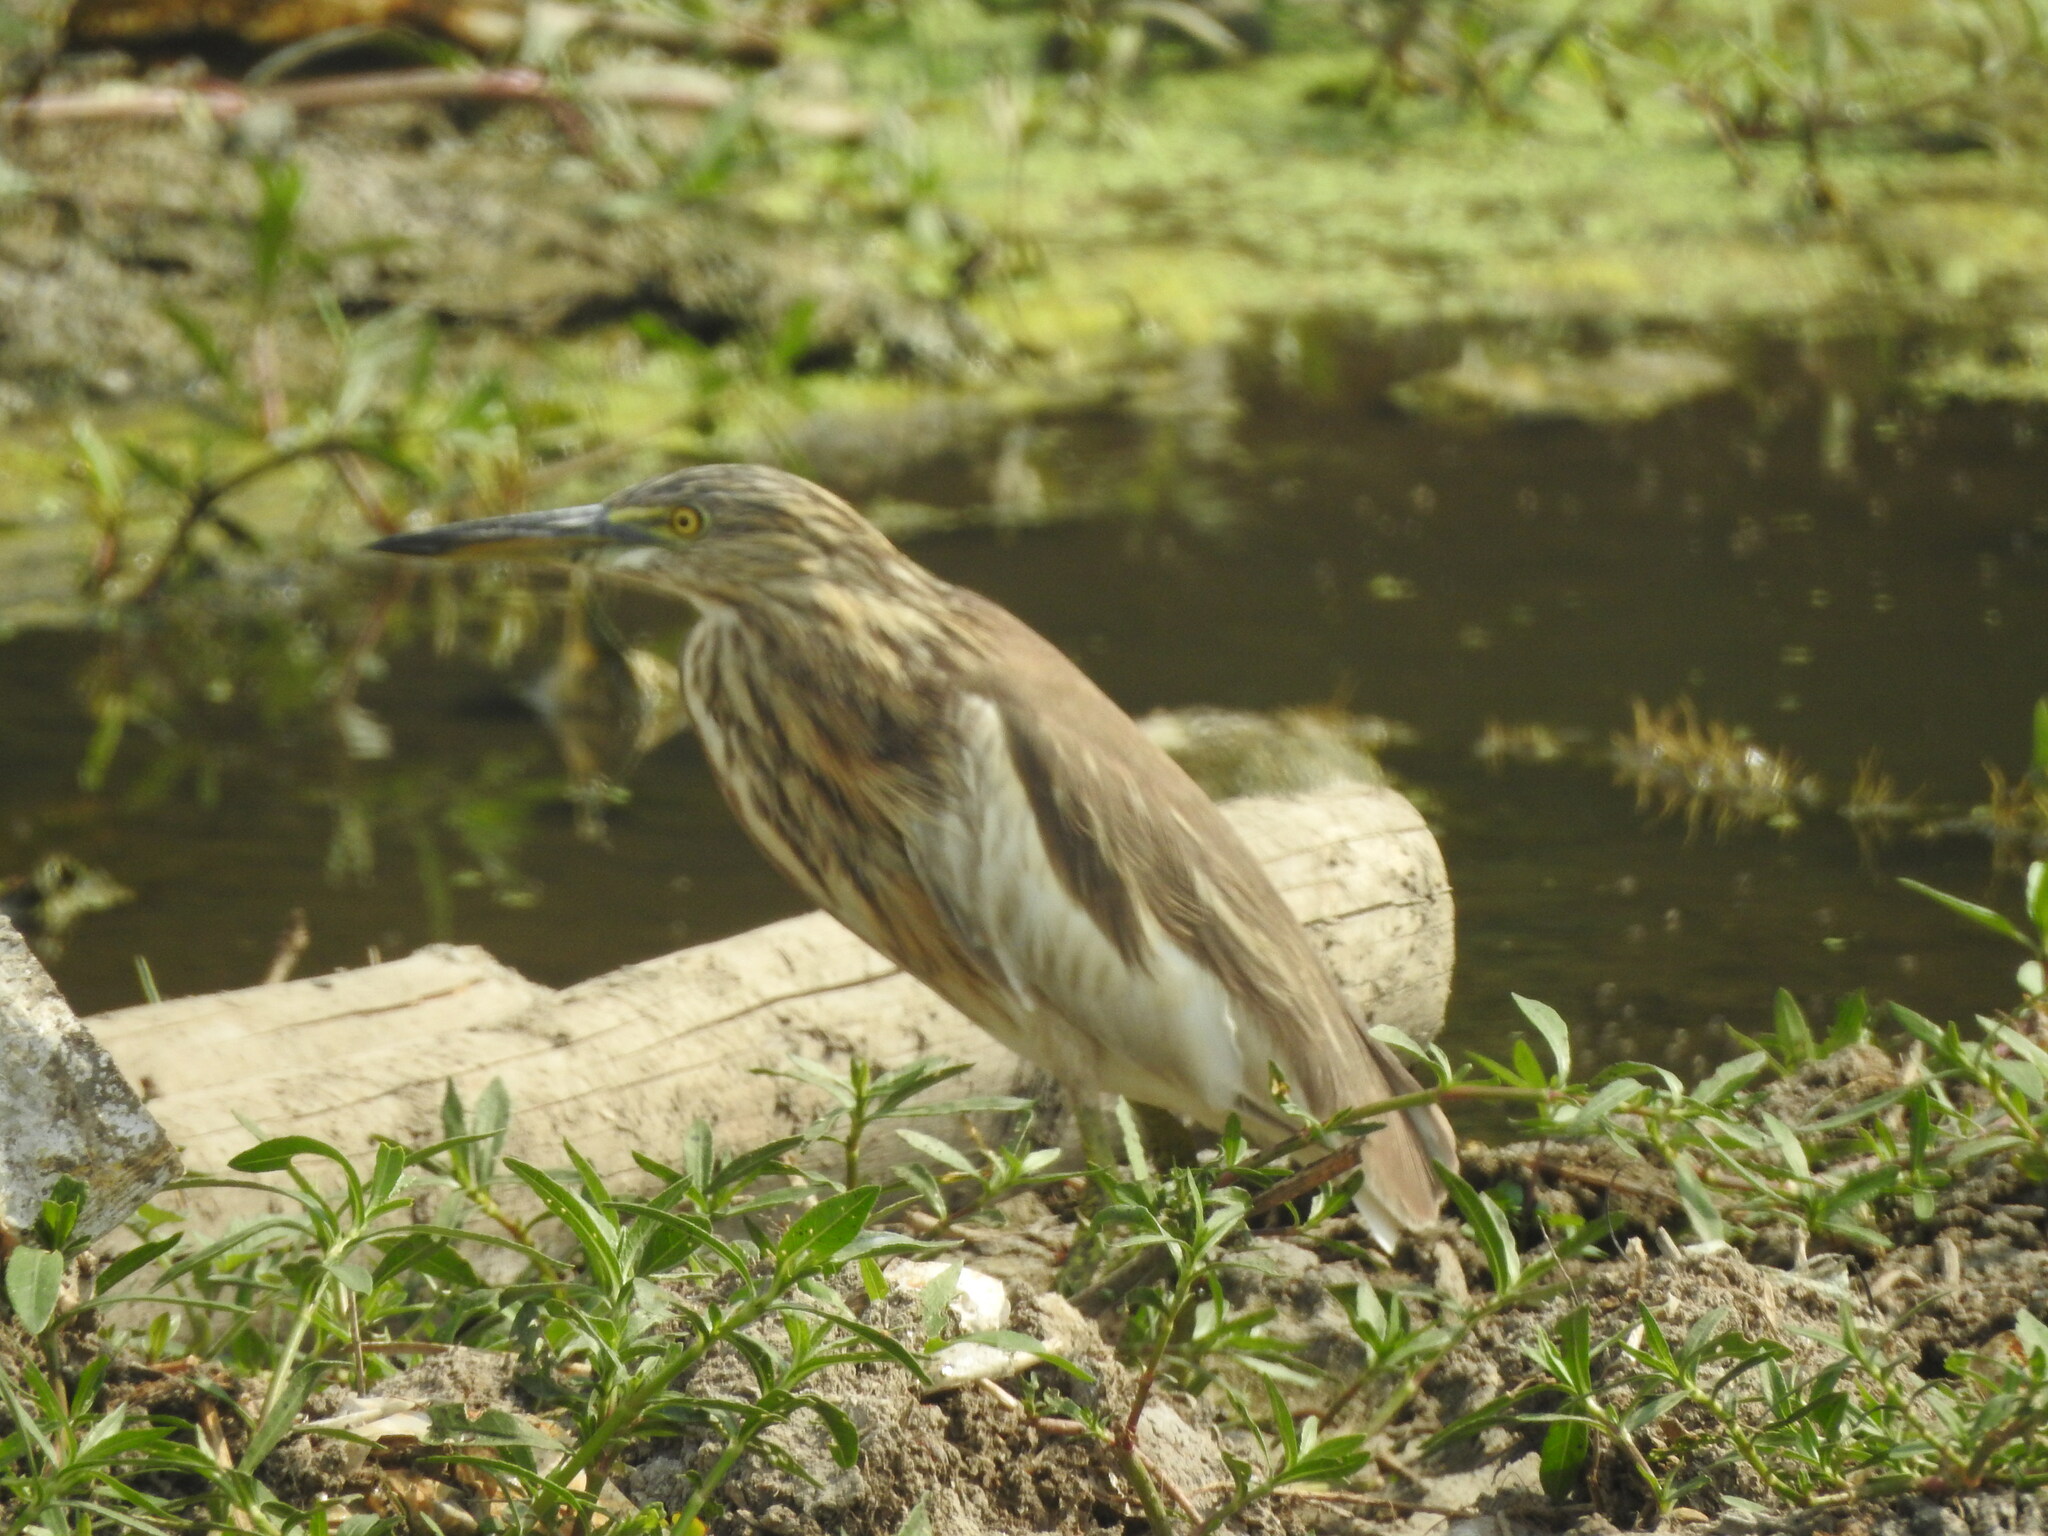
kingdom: Animalia
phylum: Chordata
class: Aves
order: Pelecaniformes
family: Ardeidae
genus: Ardeola
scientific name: Ardeola grayii
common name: Indian pond heron
